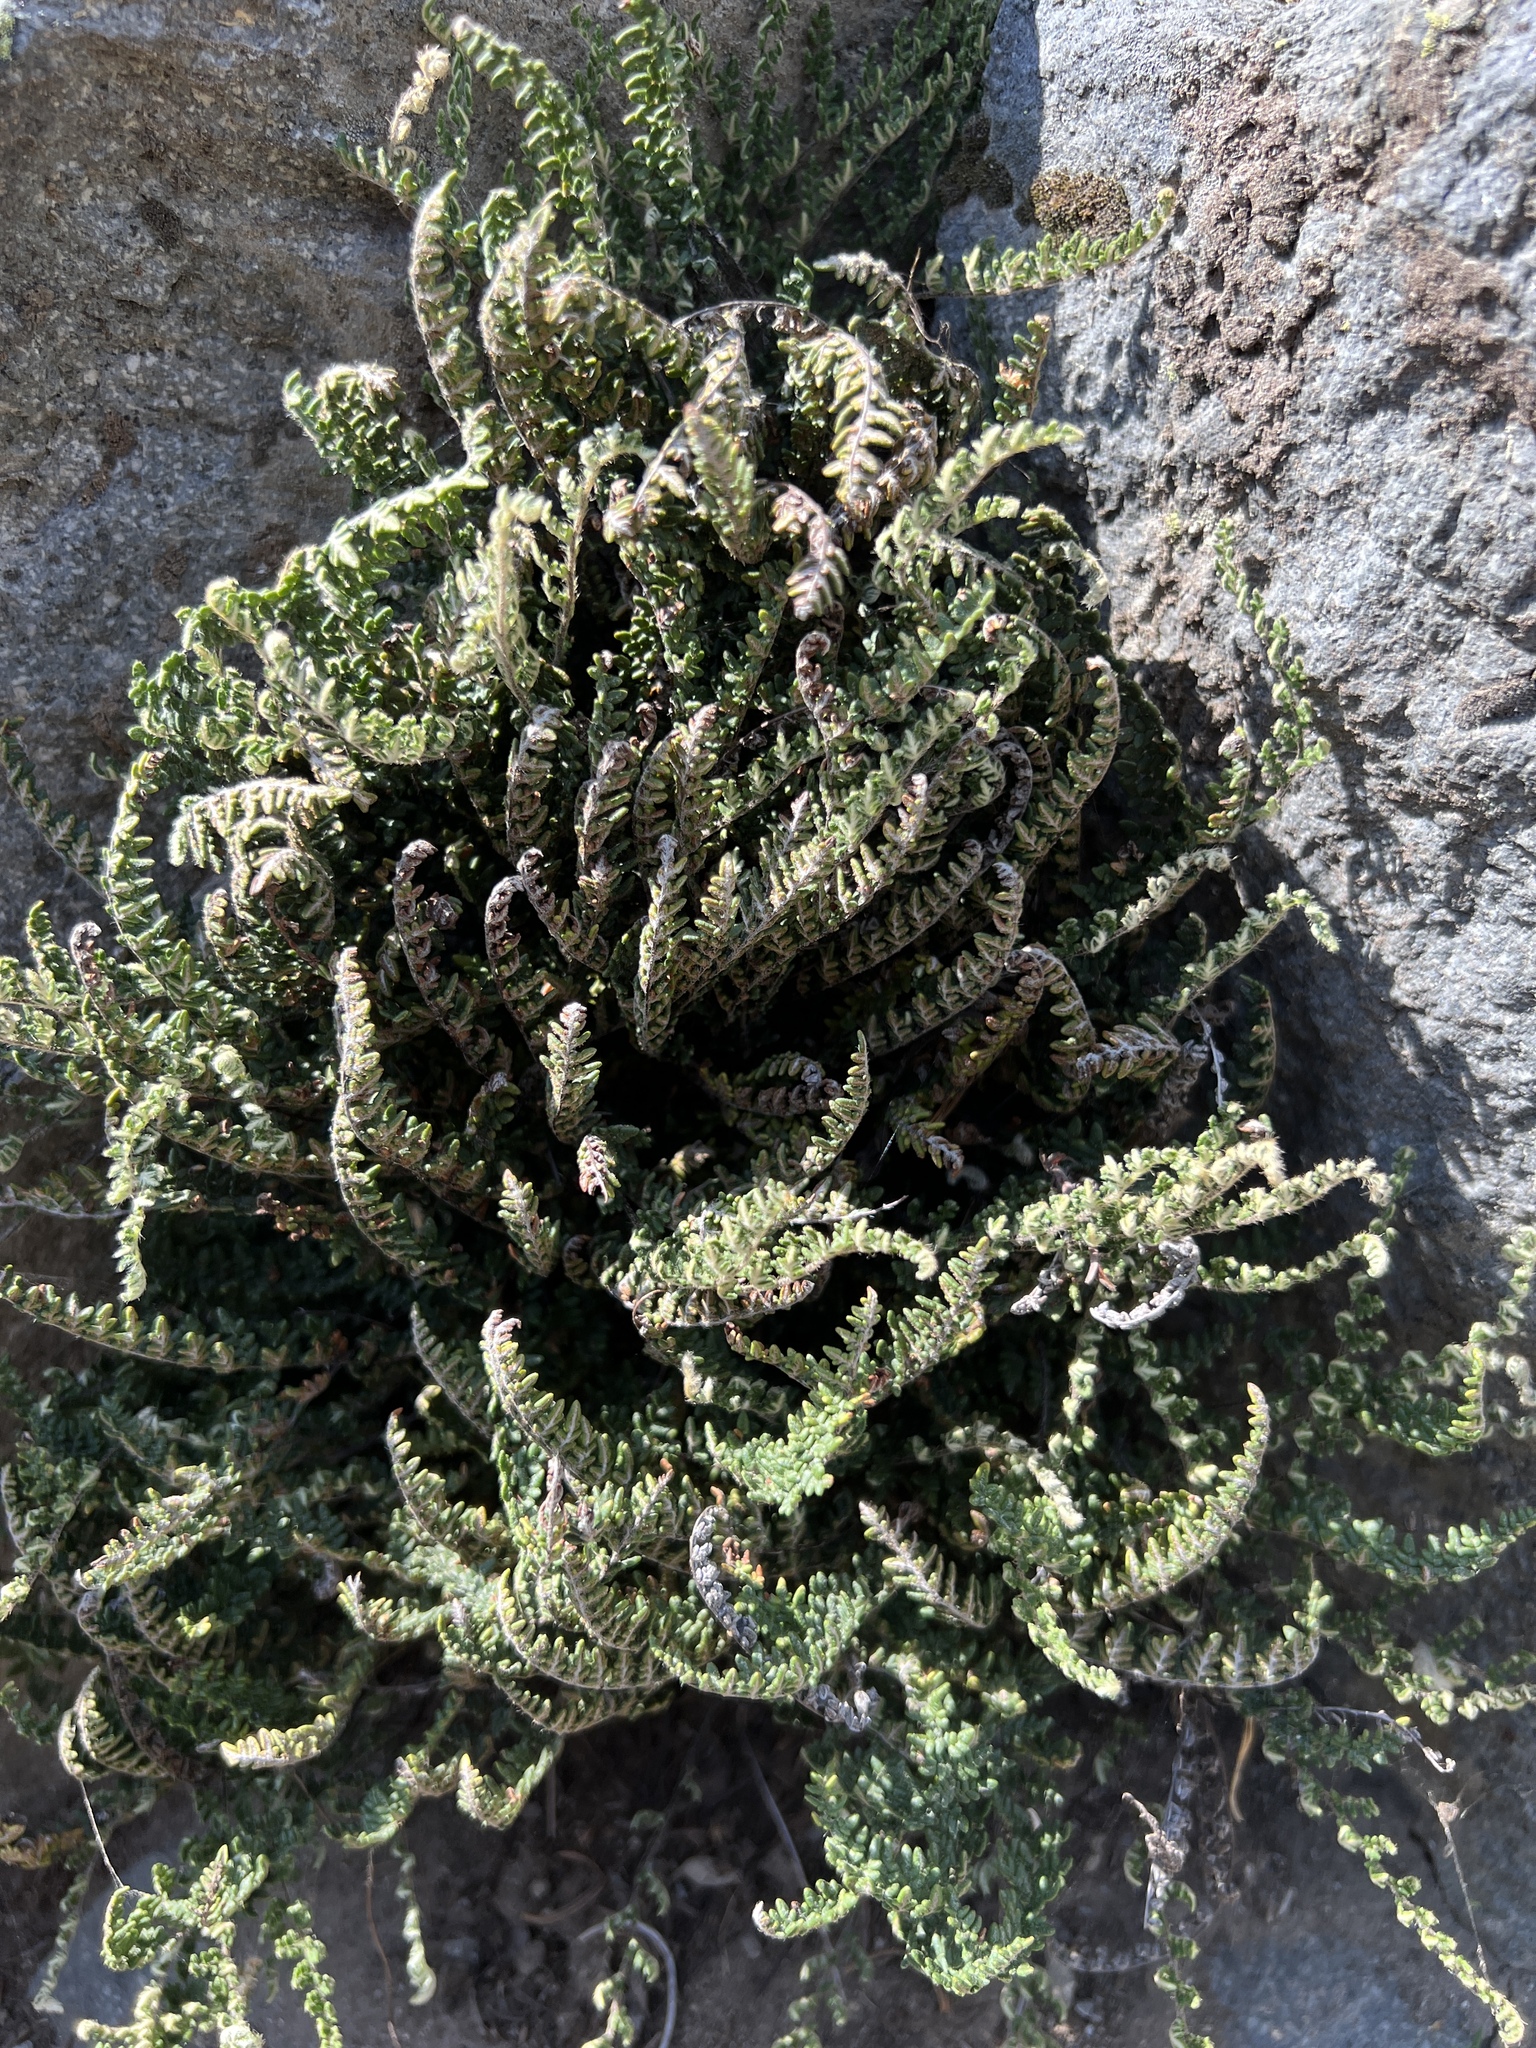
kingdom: Plantae
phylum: Tracheophyta
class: Polypodiopsida
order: Polypodiales
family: Pteridaceae
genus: Myriopteris
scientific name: Myriopteris gracillima
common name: Lace fern
